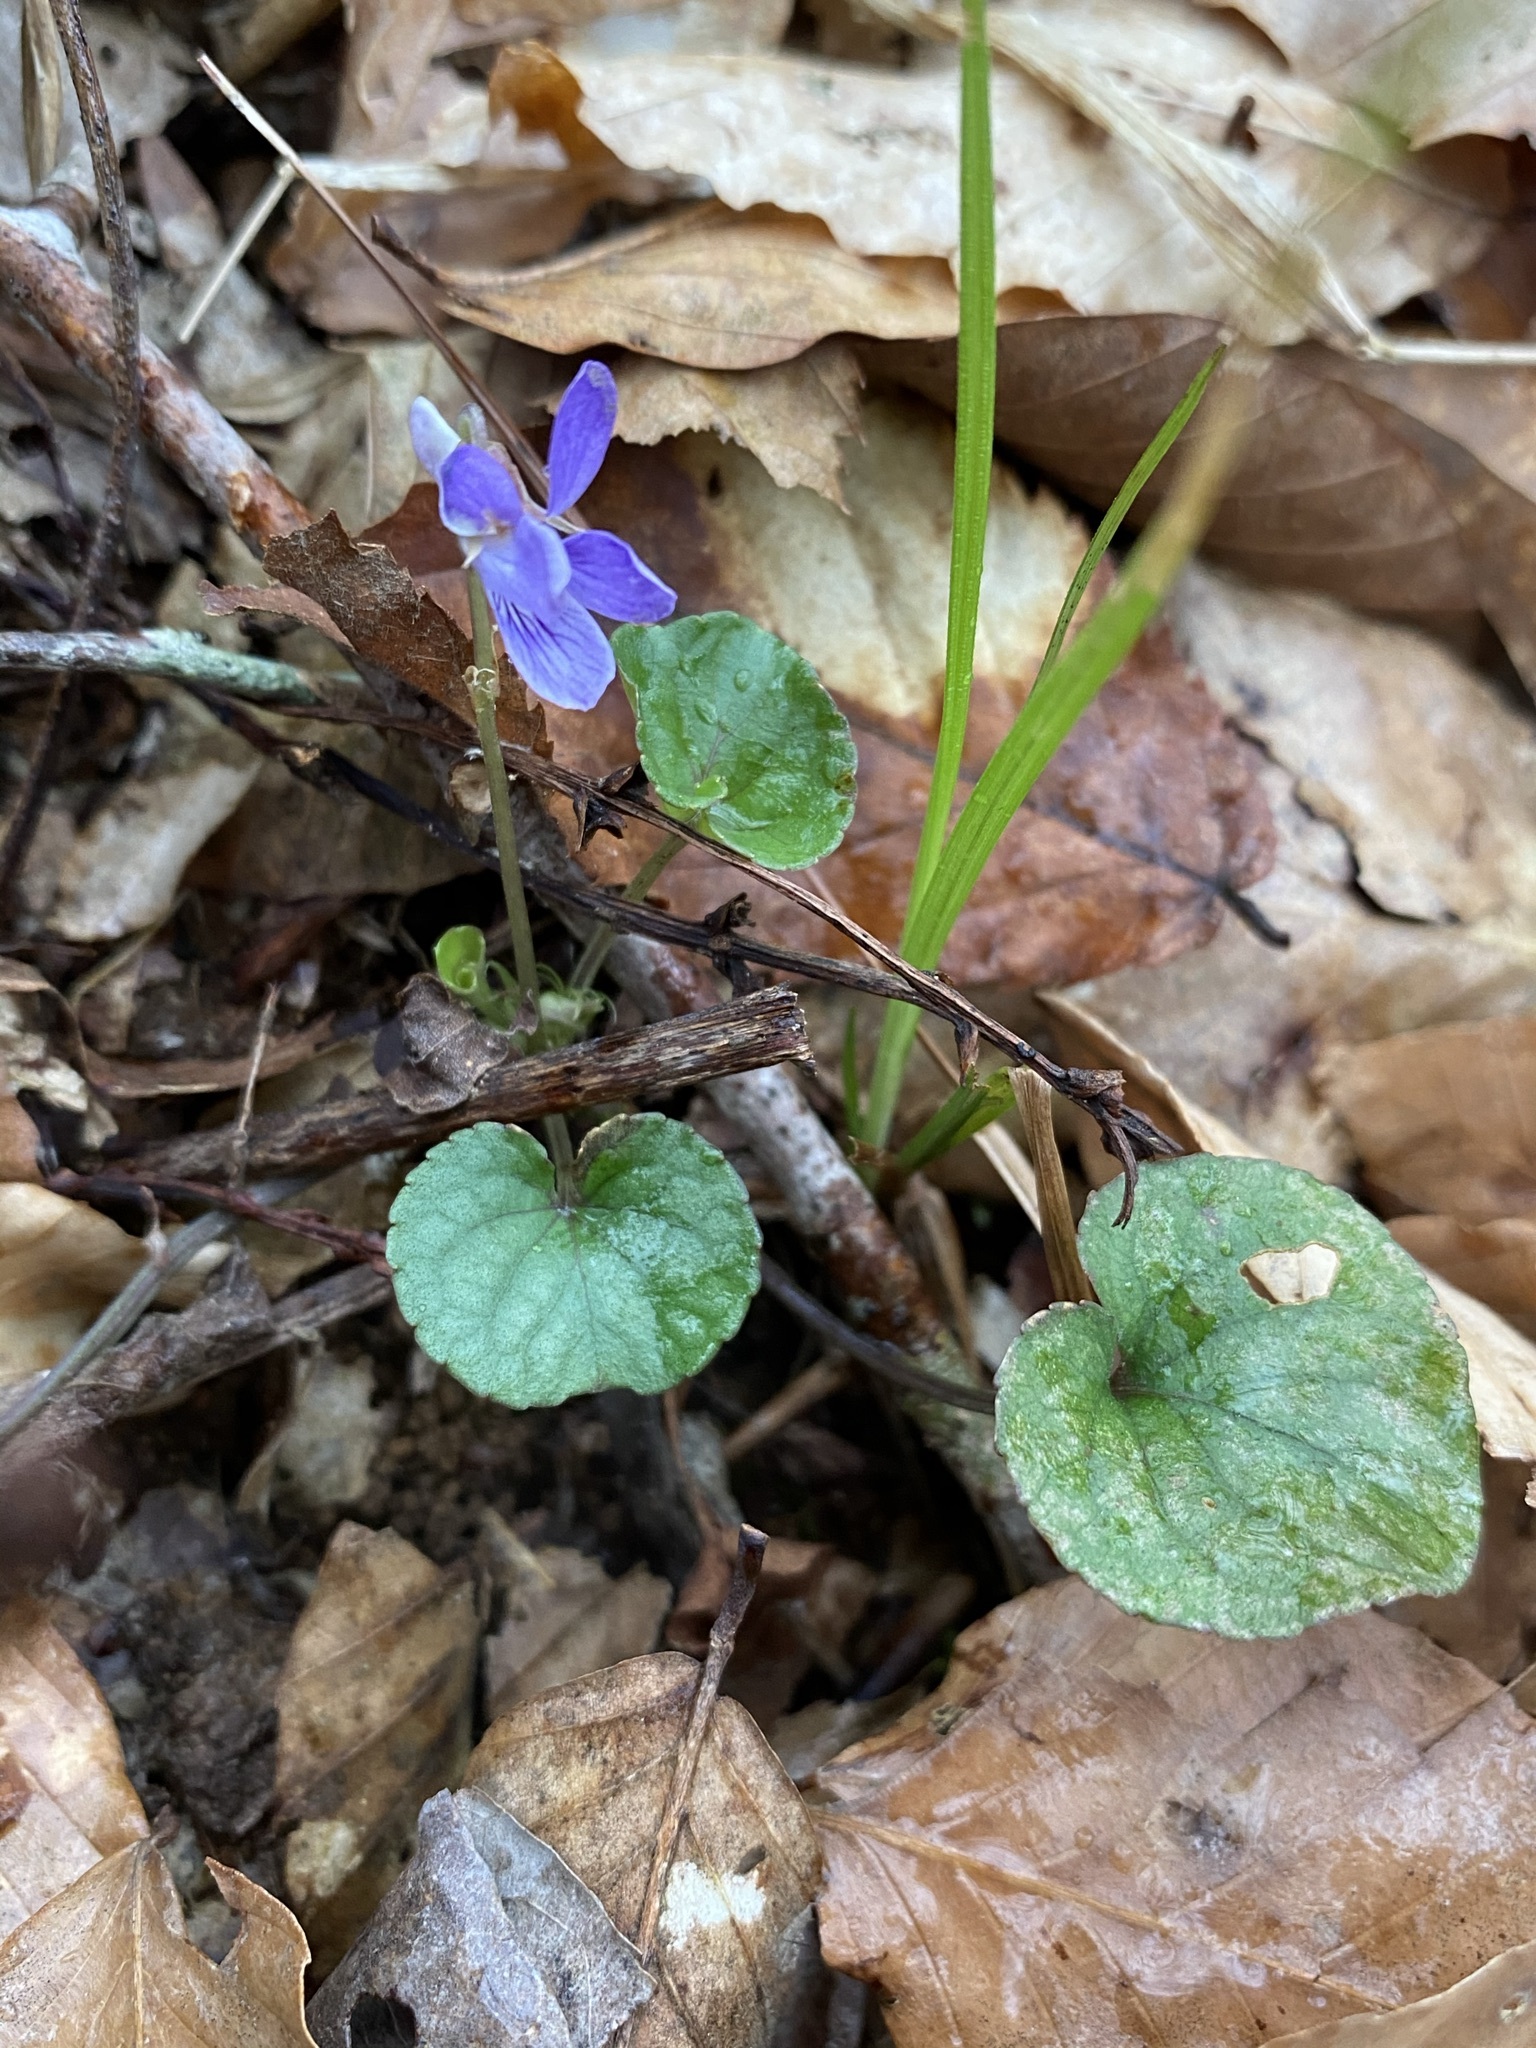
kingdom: Plantae
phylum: Tracheophyta
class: Magnoliopsida
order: Malpighiales
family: Violaceae
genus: Viola
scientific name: Viola walteri
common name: Prostrate southern violet
